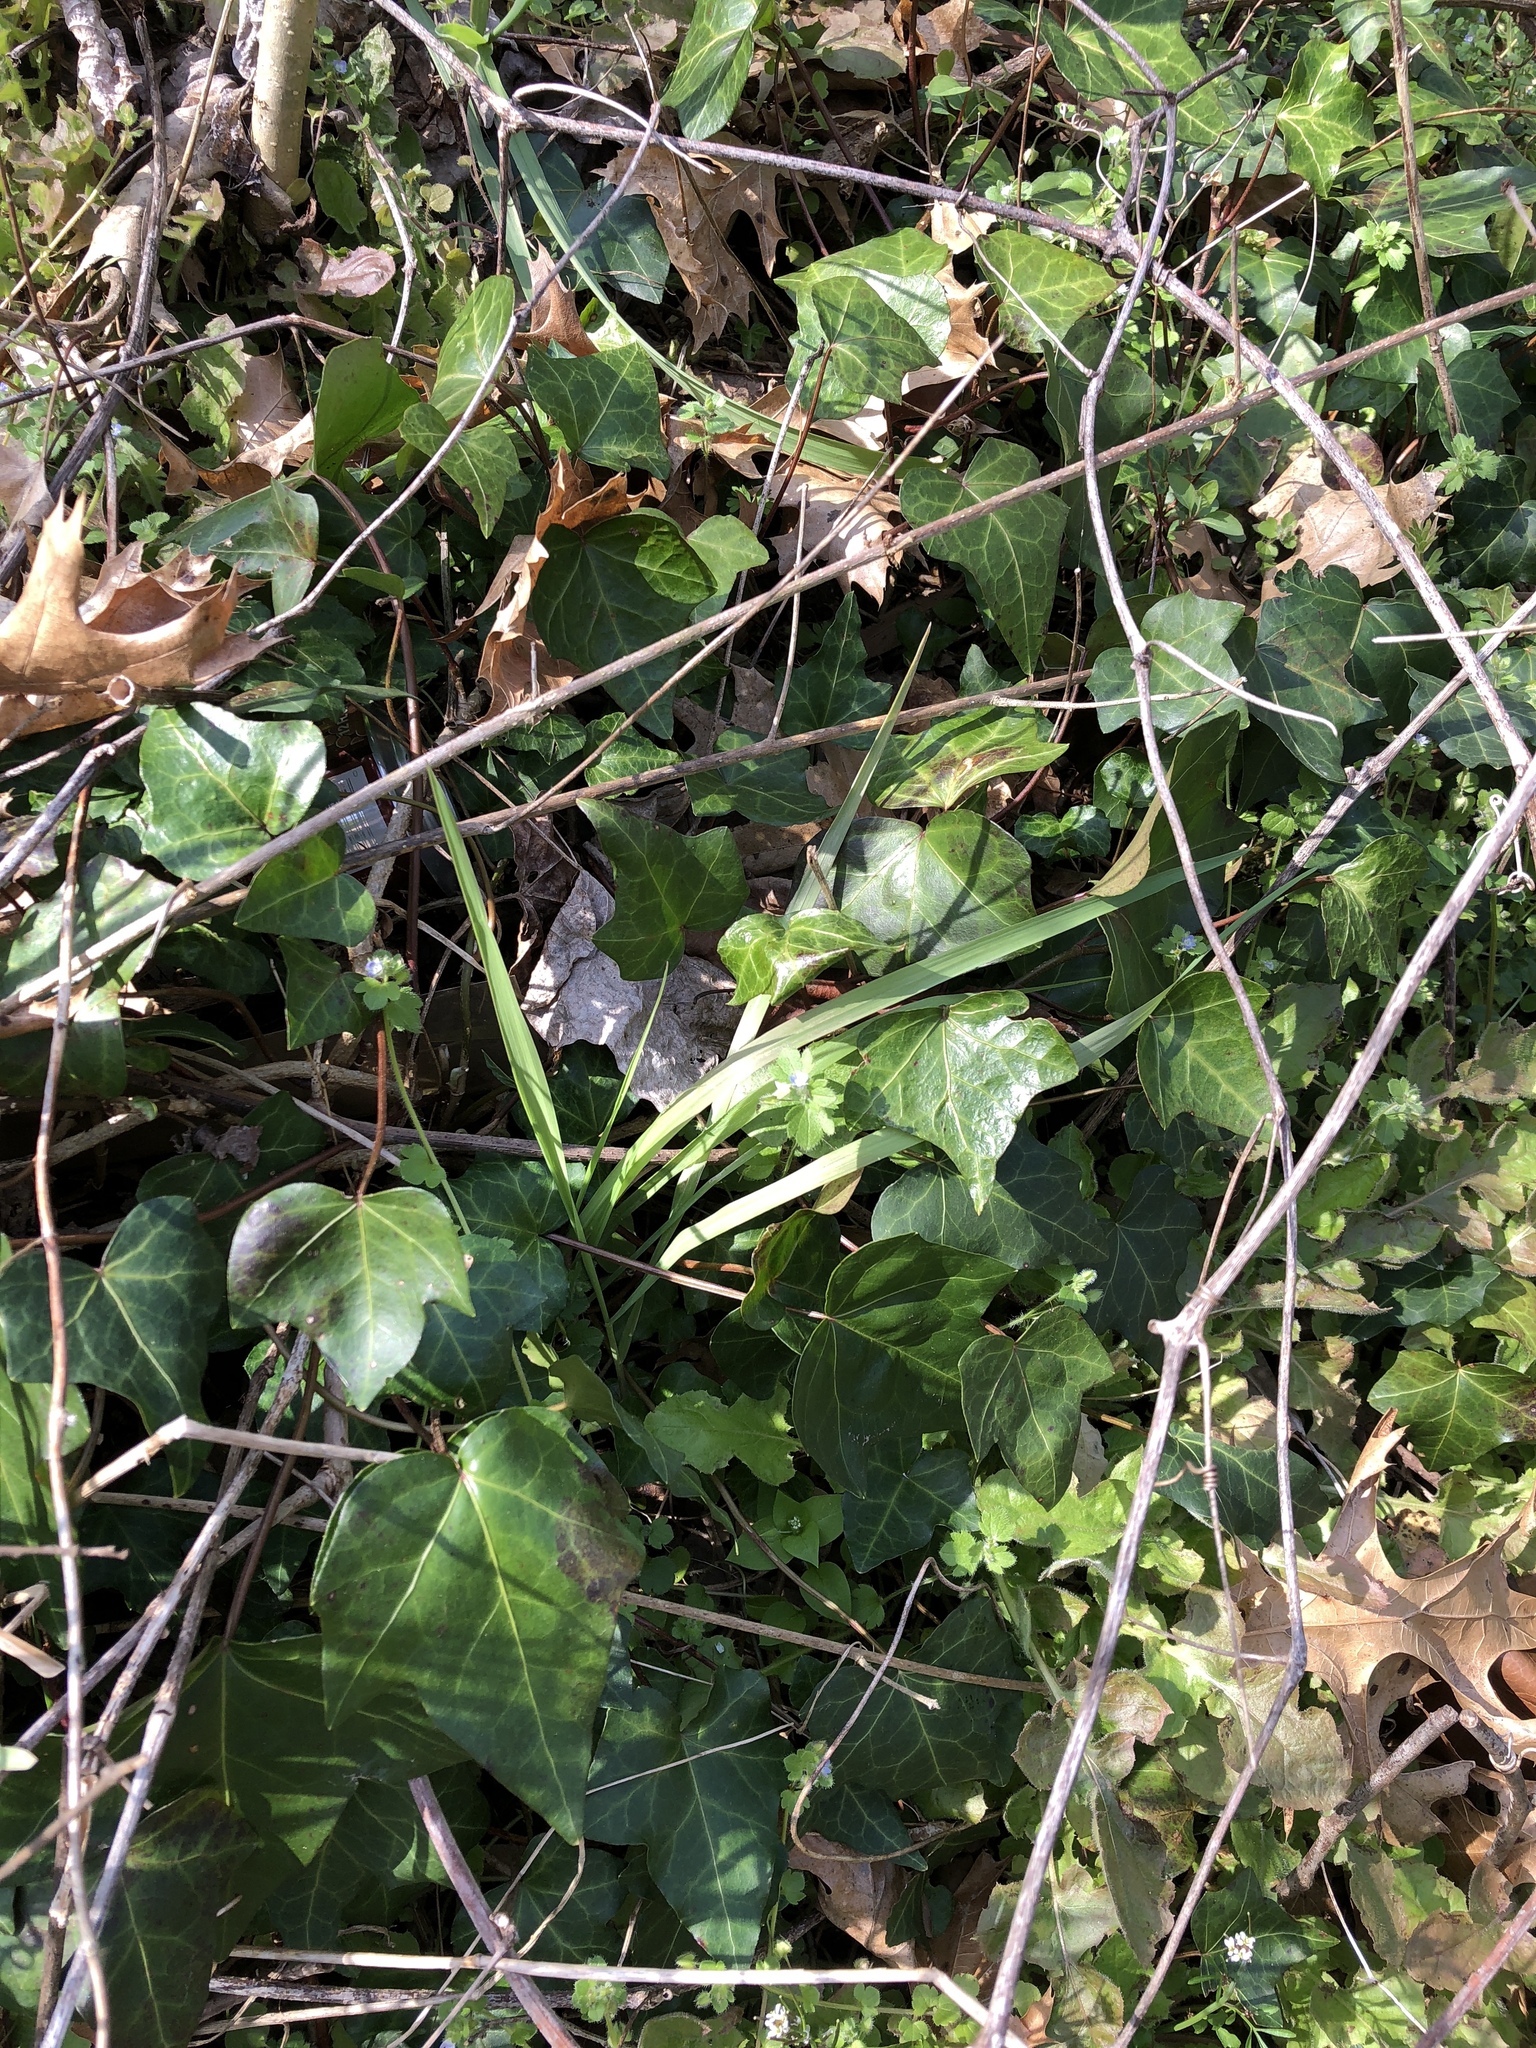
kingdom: Plantae
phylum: Tracheophyta
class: Magnoliopsida
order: Apiales
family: Araliaceae
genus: Hedera
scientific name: Hedera helix
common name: Ivy
